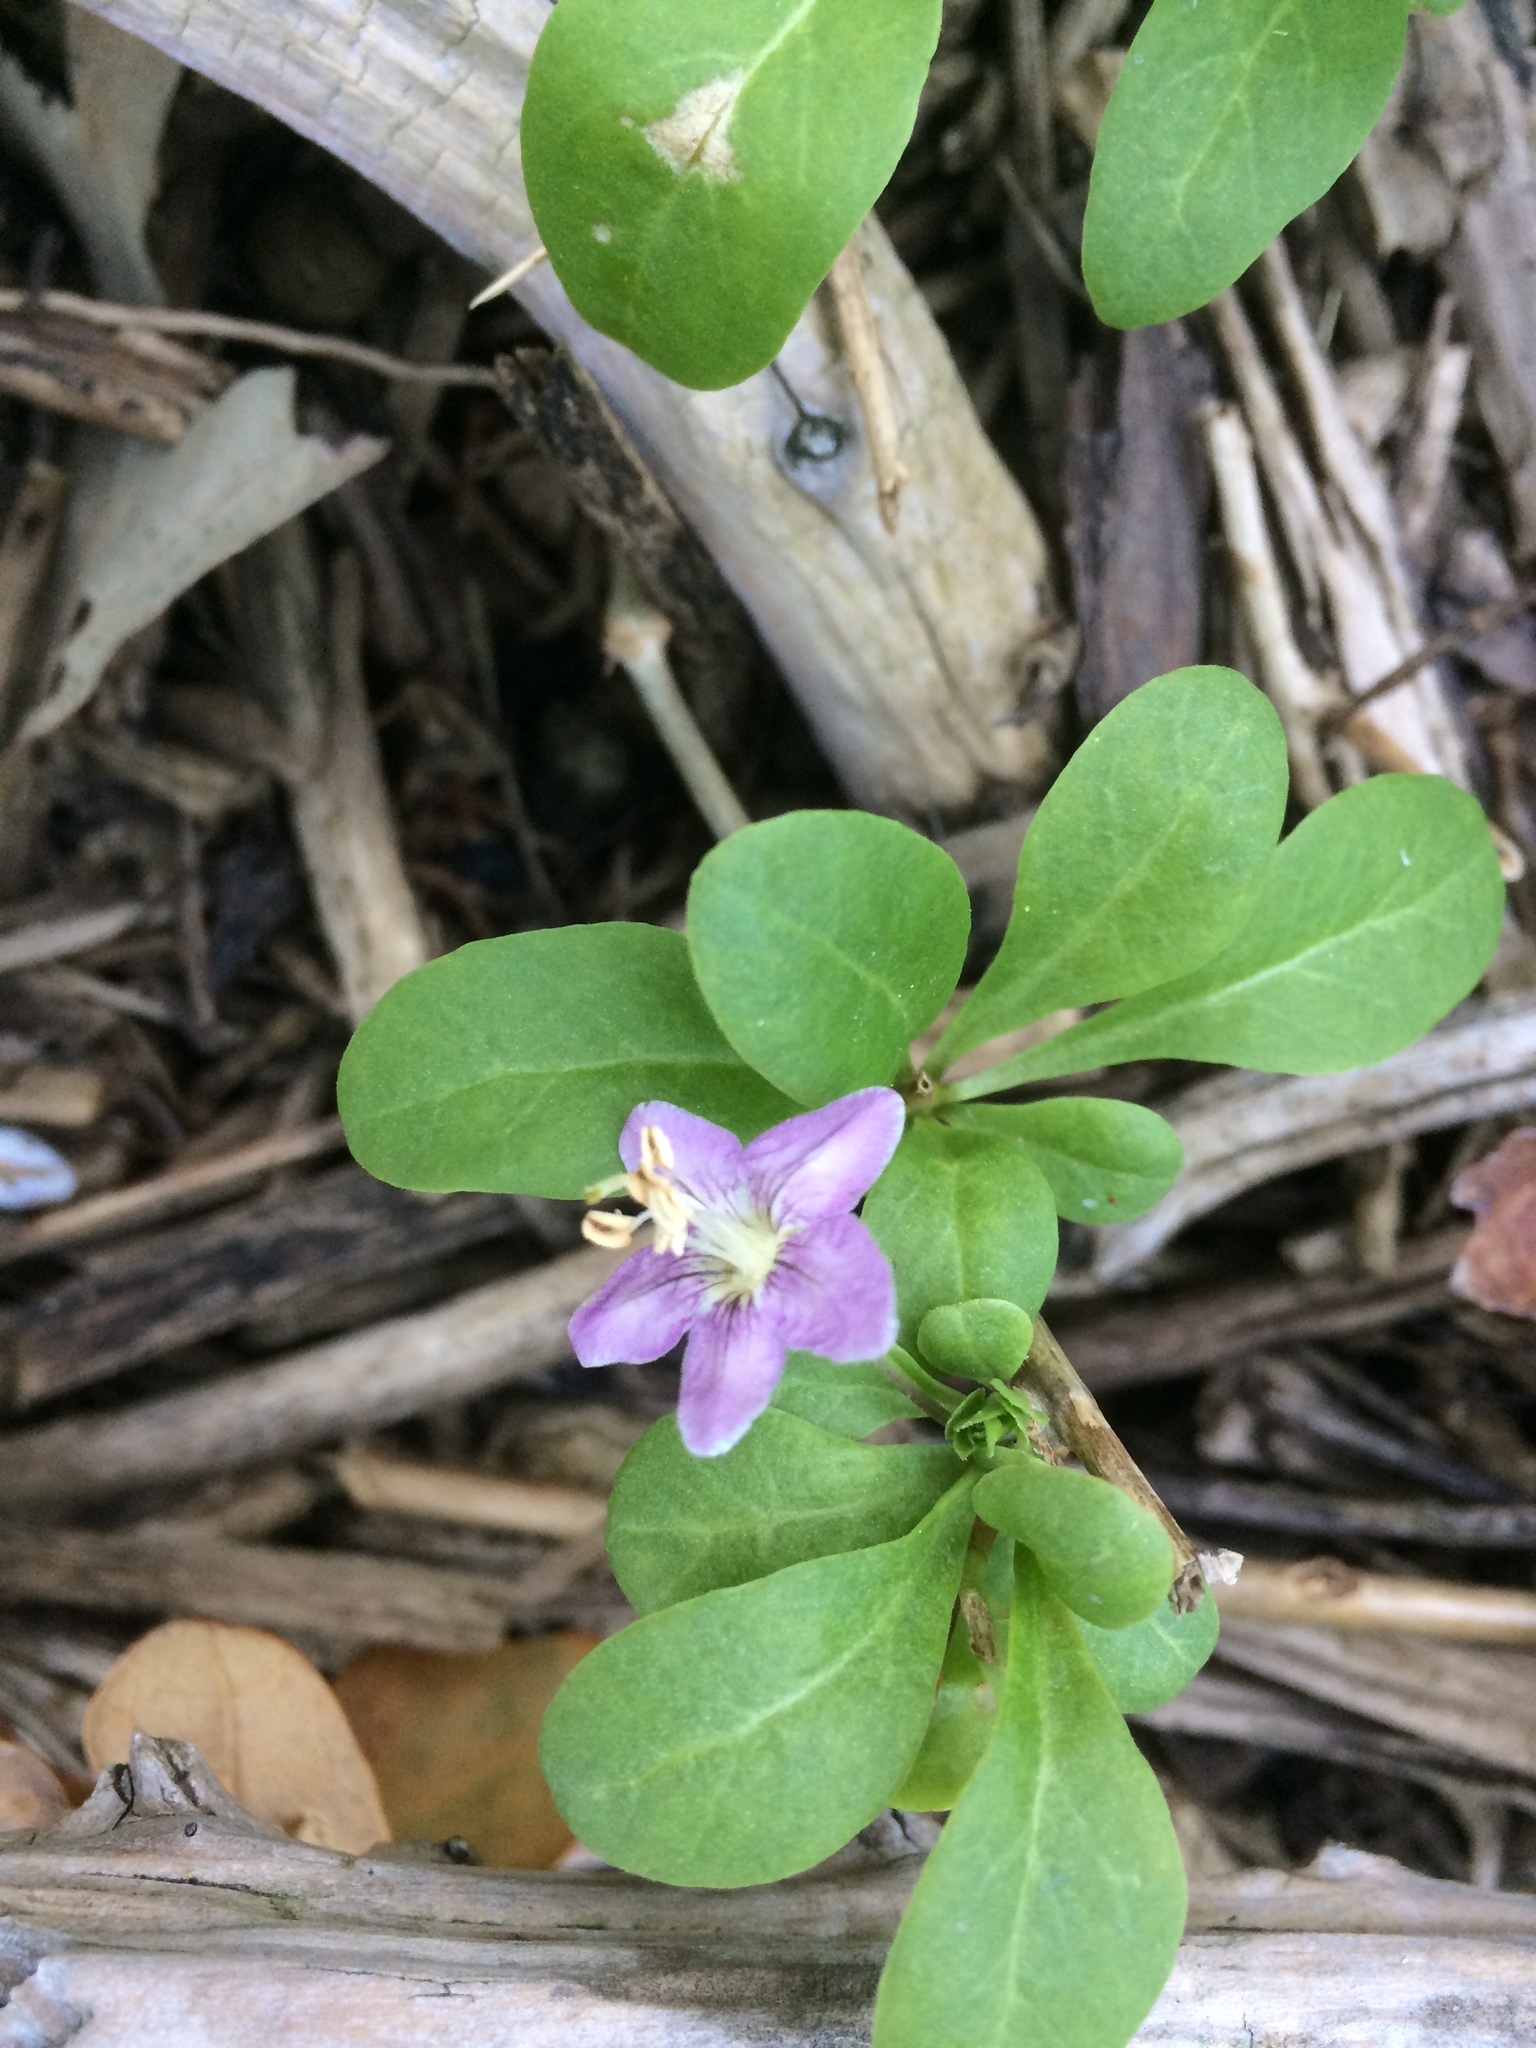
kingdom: Plantae
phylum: Tracheophyta
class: Magnoliopsida
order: Solanales
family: Solanaceae
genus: Lycium
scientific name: Lycium barbarum
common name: Duke of argyll's teaplant
